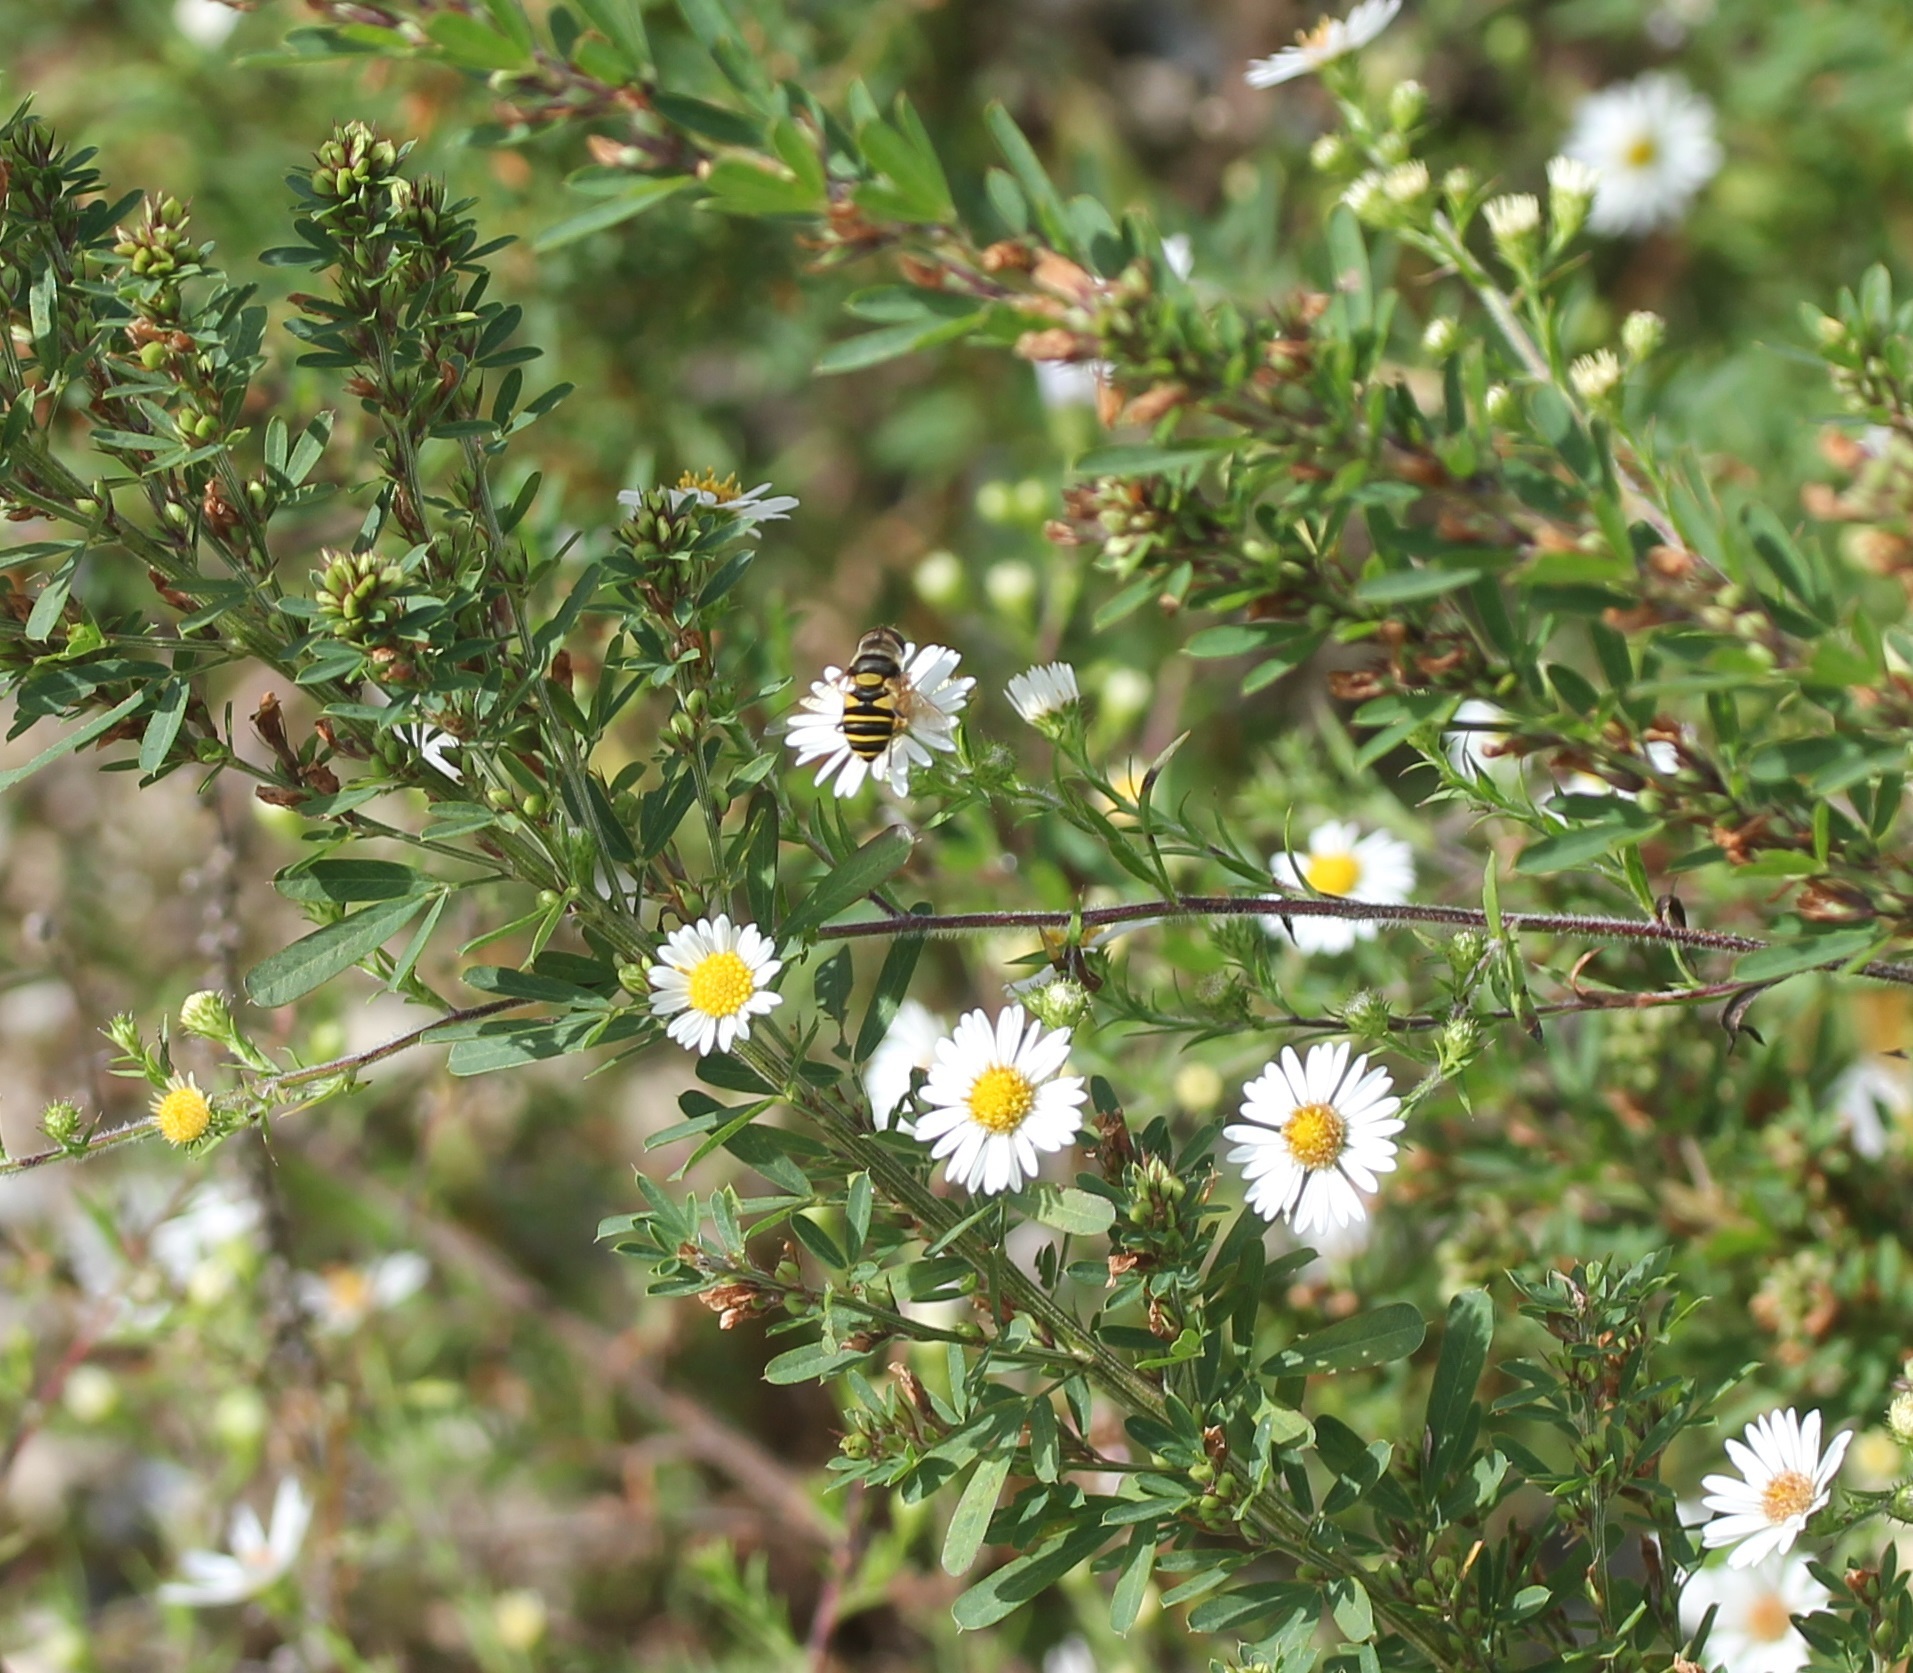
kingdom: Animalia
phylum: Arthropoda
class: Insecta
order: Diptera
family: Syrphidae
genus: Eristalis
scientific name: Eristalis transversa
